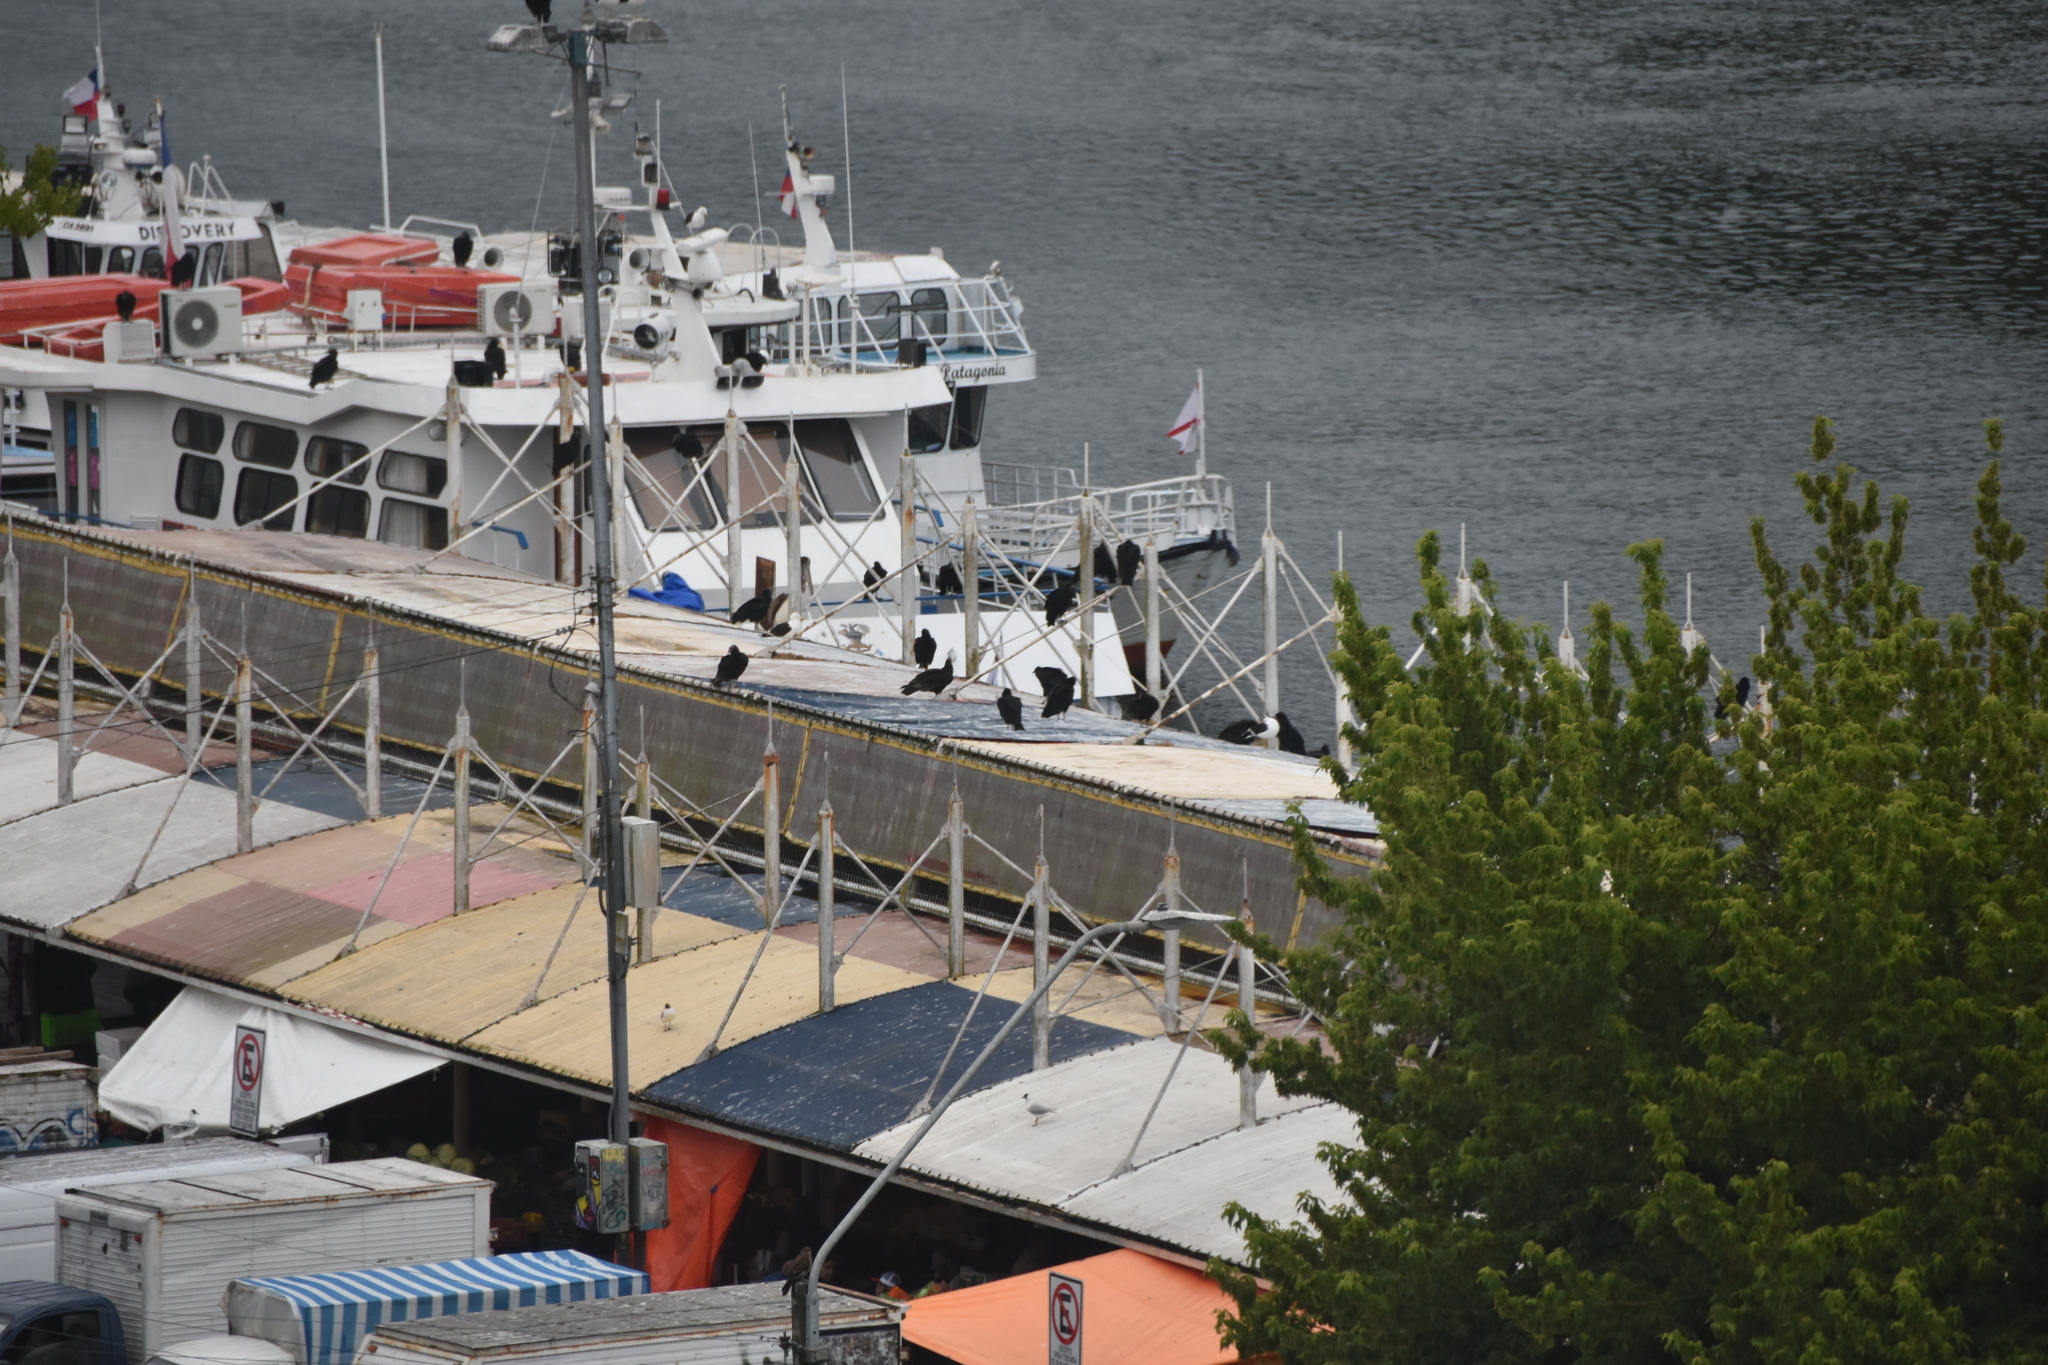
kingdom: Animalia
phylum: Chordata
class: Aves
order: Falconiformes
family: Falconidae
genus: Daptrius
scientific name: Daptrius
